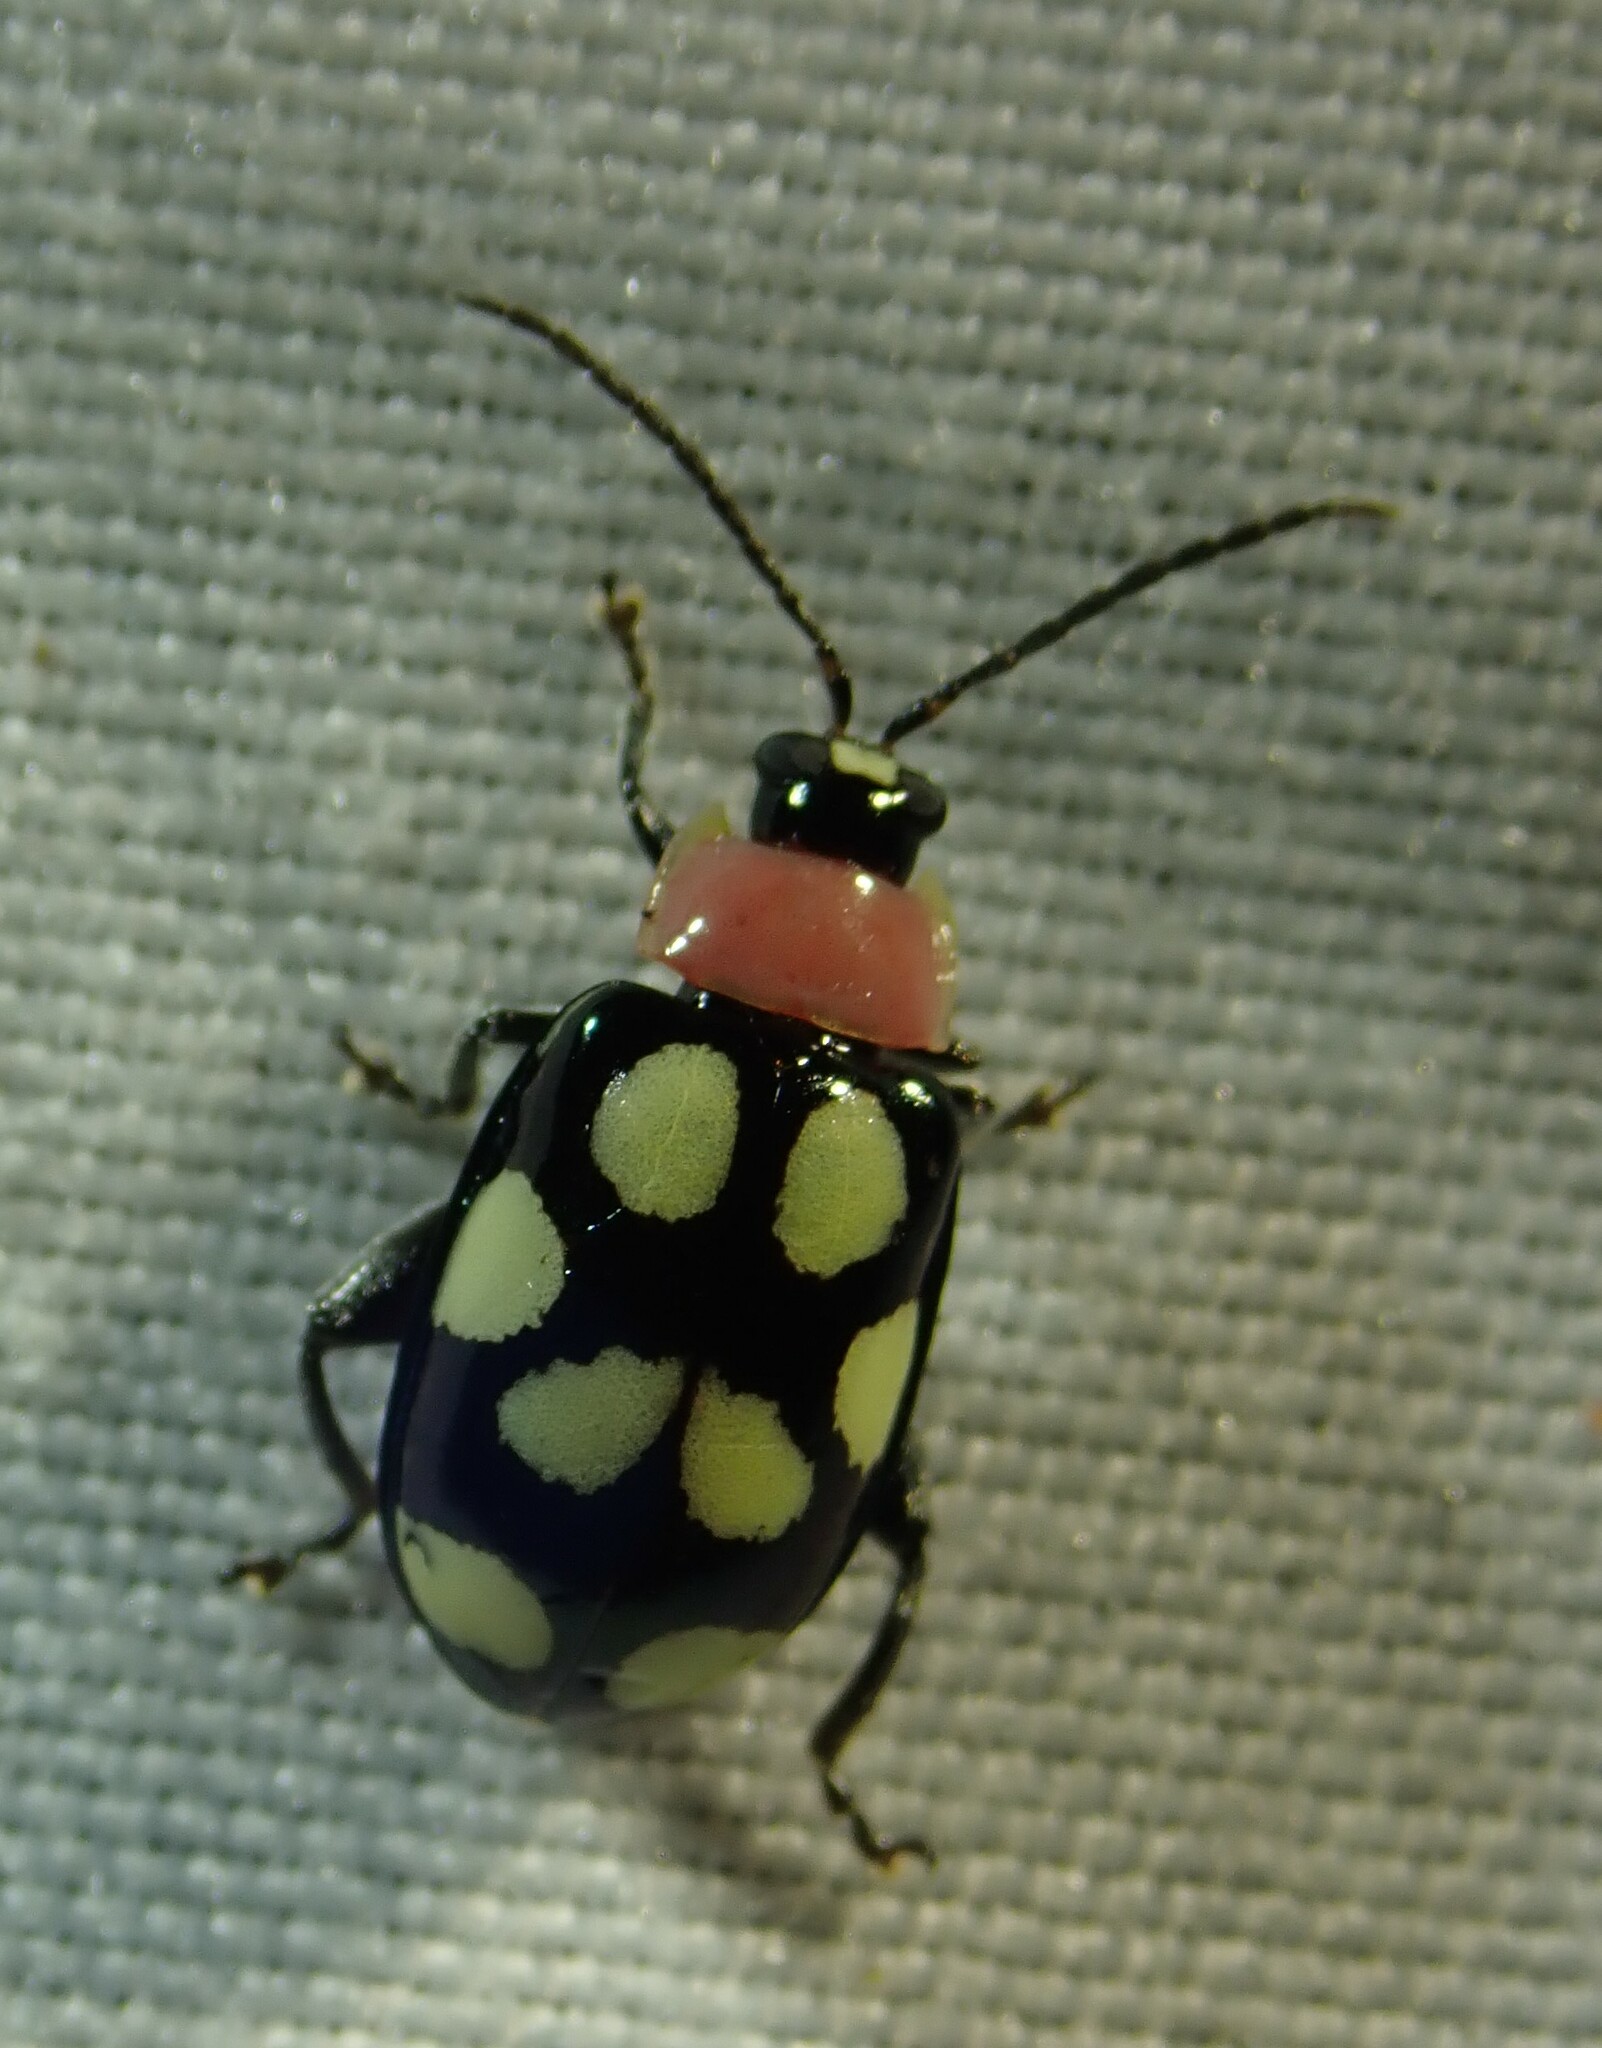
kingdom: Animalia
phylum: Arthropoda
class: Insecta
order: Coleoptera
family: Chrysomelidae
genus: Omophoita
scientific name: Omophoita aequinoctialis
